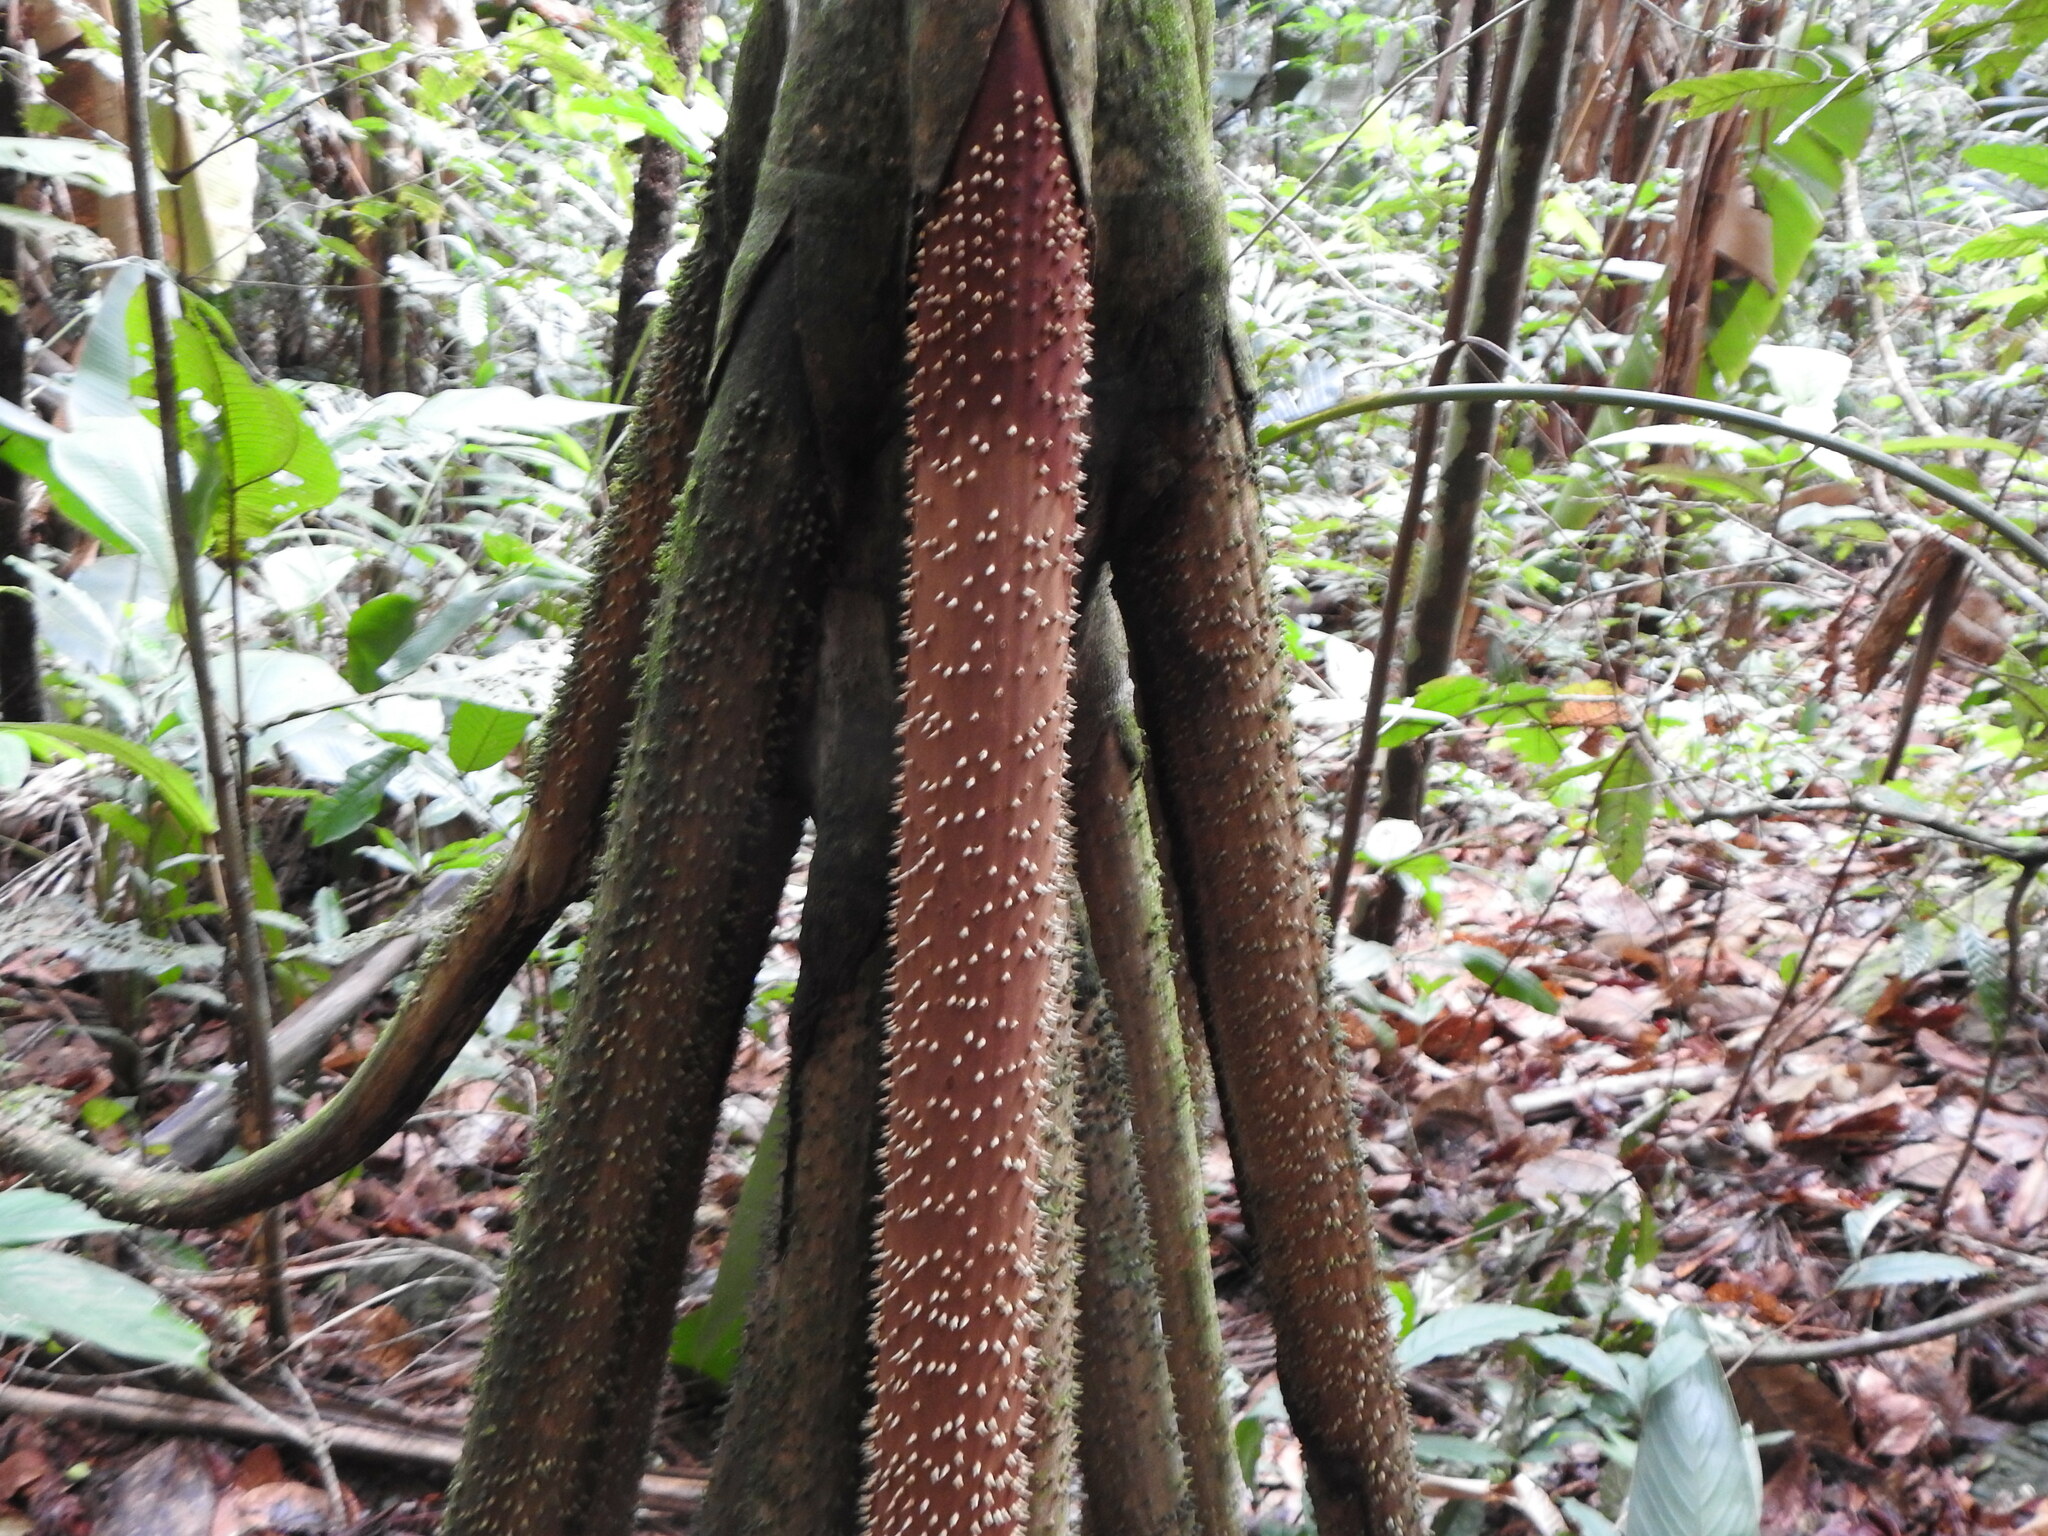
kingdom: Plantae
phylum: Tracheophyta
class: Liliopsida
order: Arecales
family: Arecaceae
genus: Socratea
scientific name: Socratea exorrhiza
